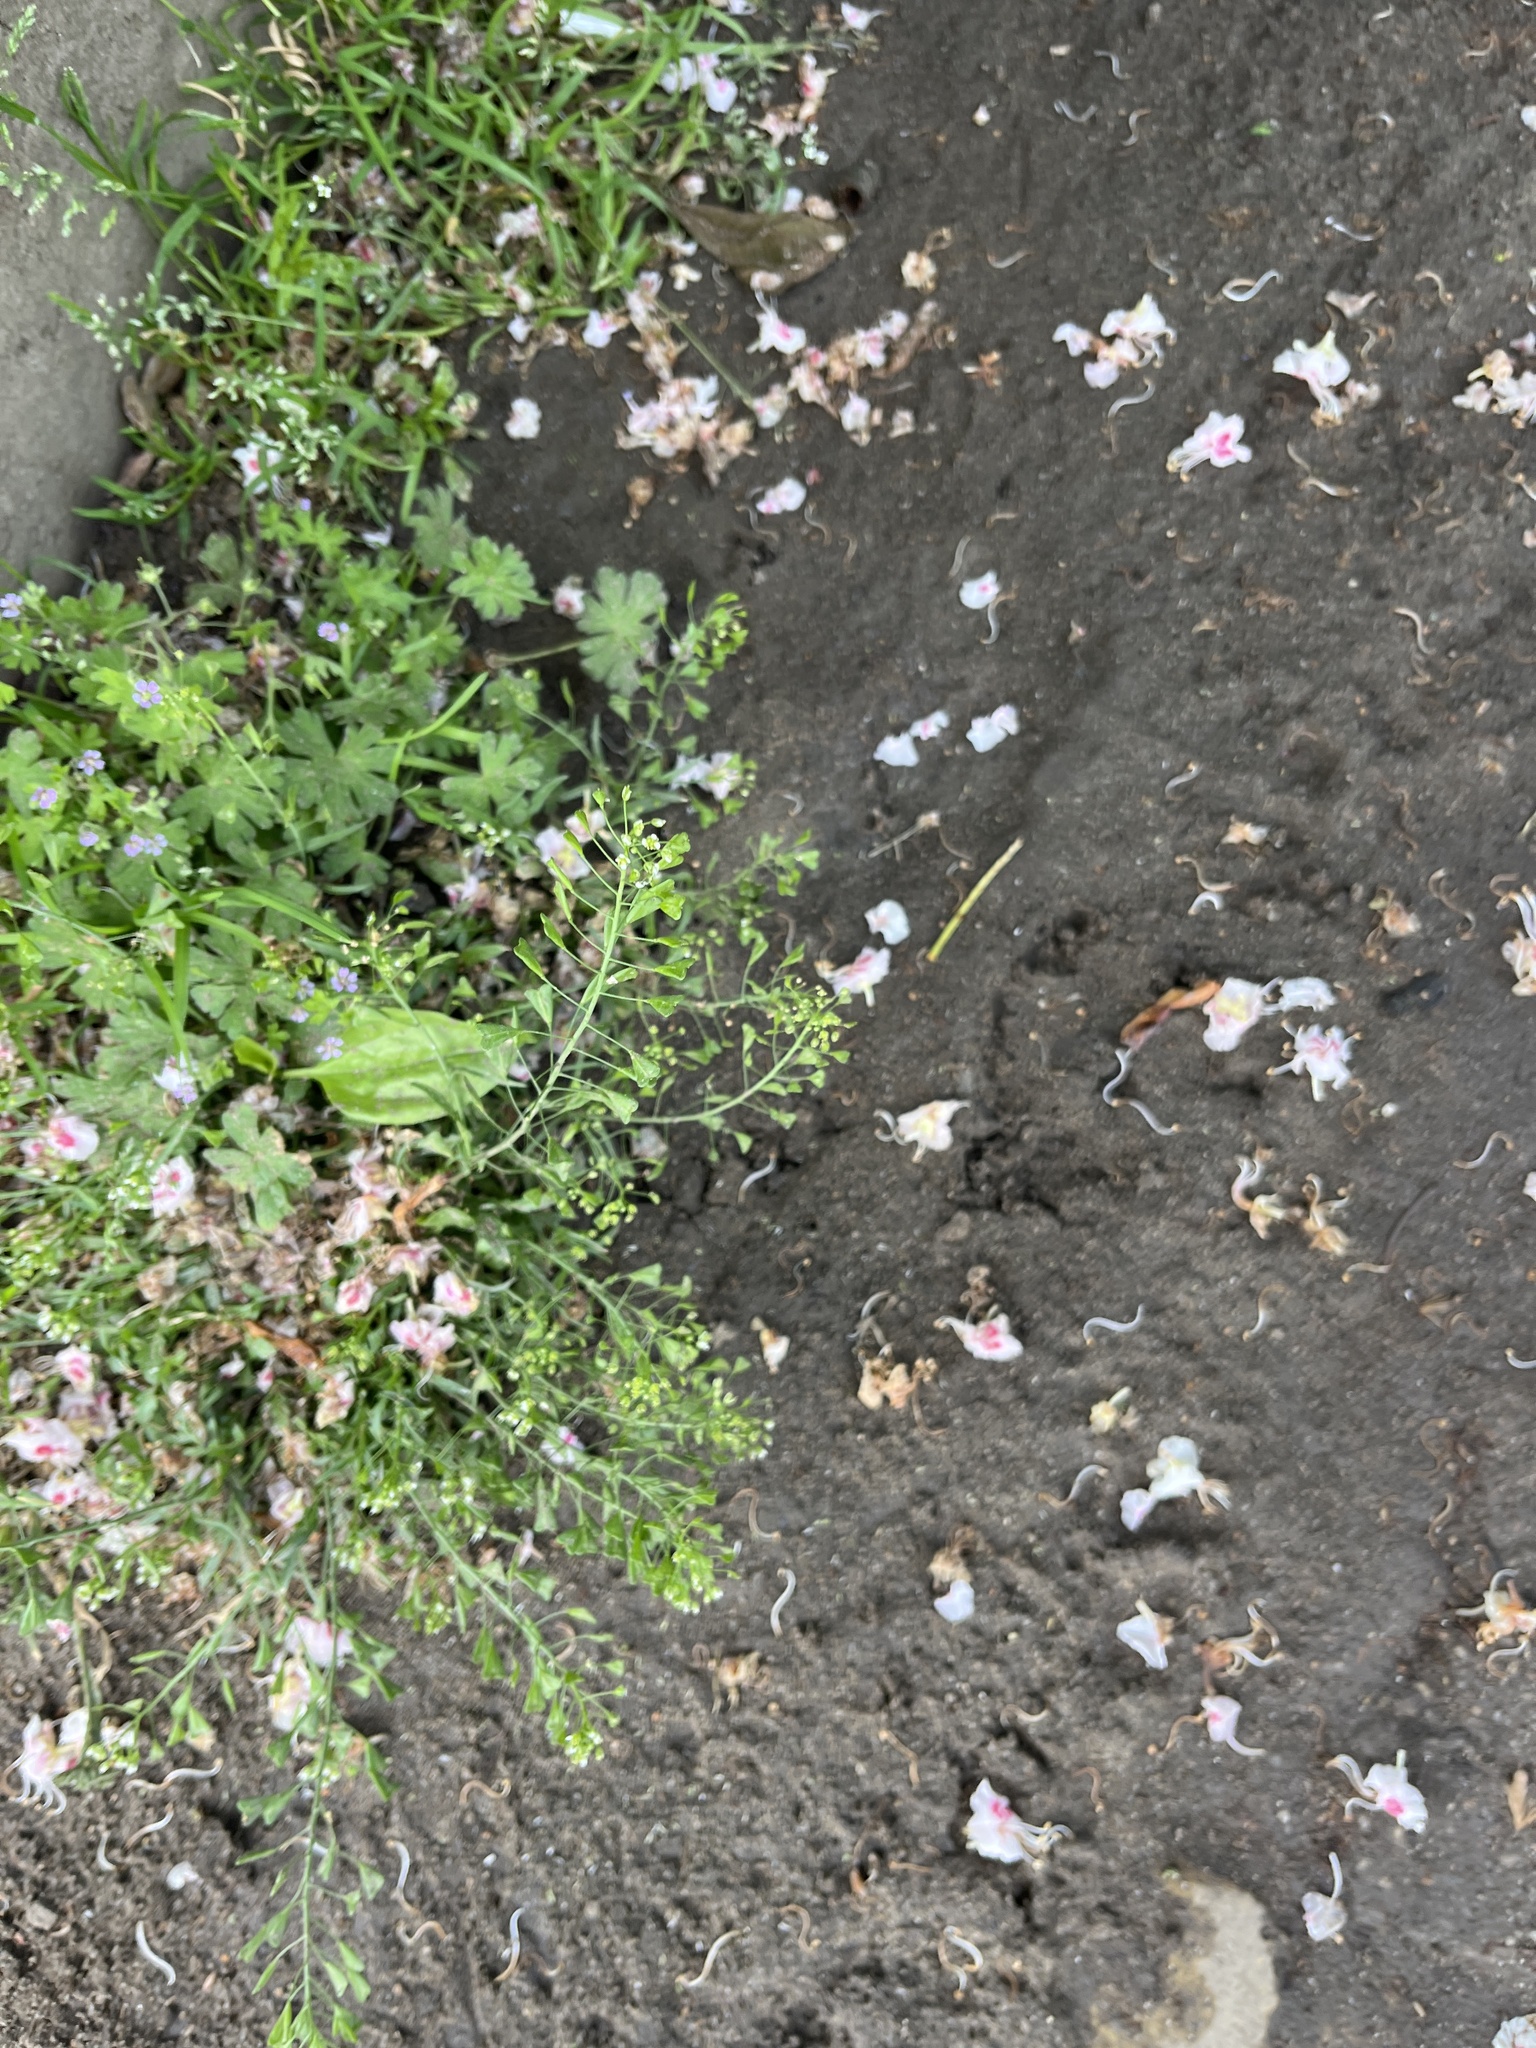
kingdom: Plantae
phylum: Tracheophyta
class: Magnoliopsida
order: Brassicales
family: Brassicaceae
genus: Capsella
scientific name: Capsella bursa-pastoris
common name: Shepherd's purse
